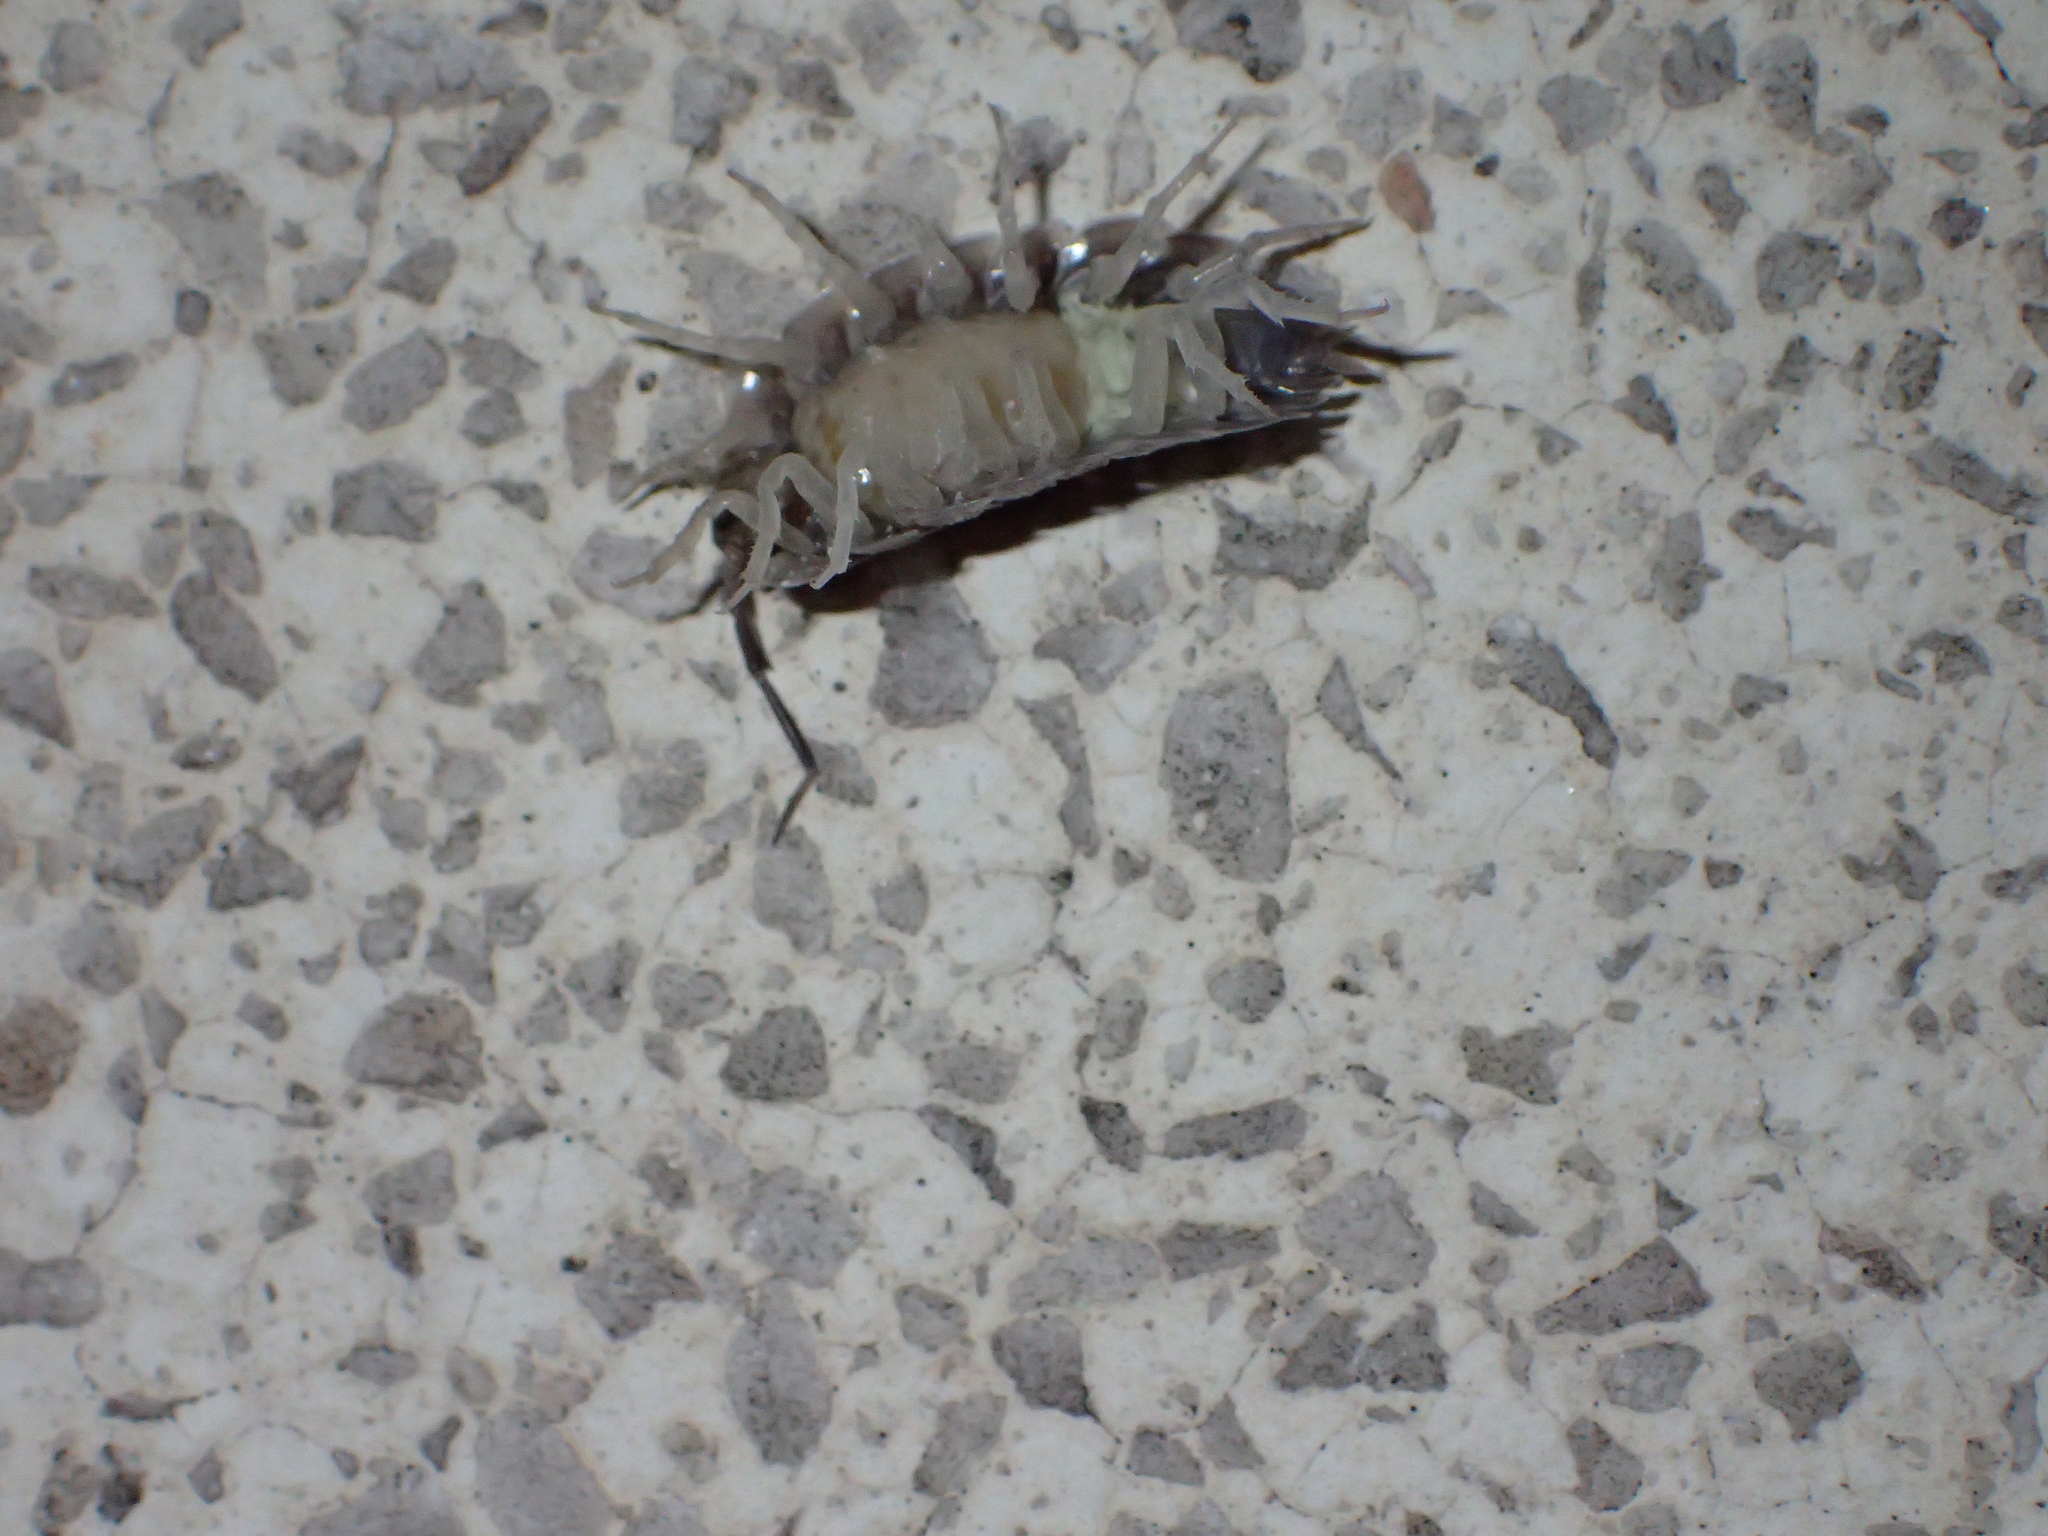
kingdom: Animalia
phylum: Arthropoda
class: Malacostraca
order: Isopoda
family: Porcellionidae
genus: Porcellio
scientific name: Porcellio obsoletus
